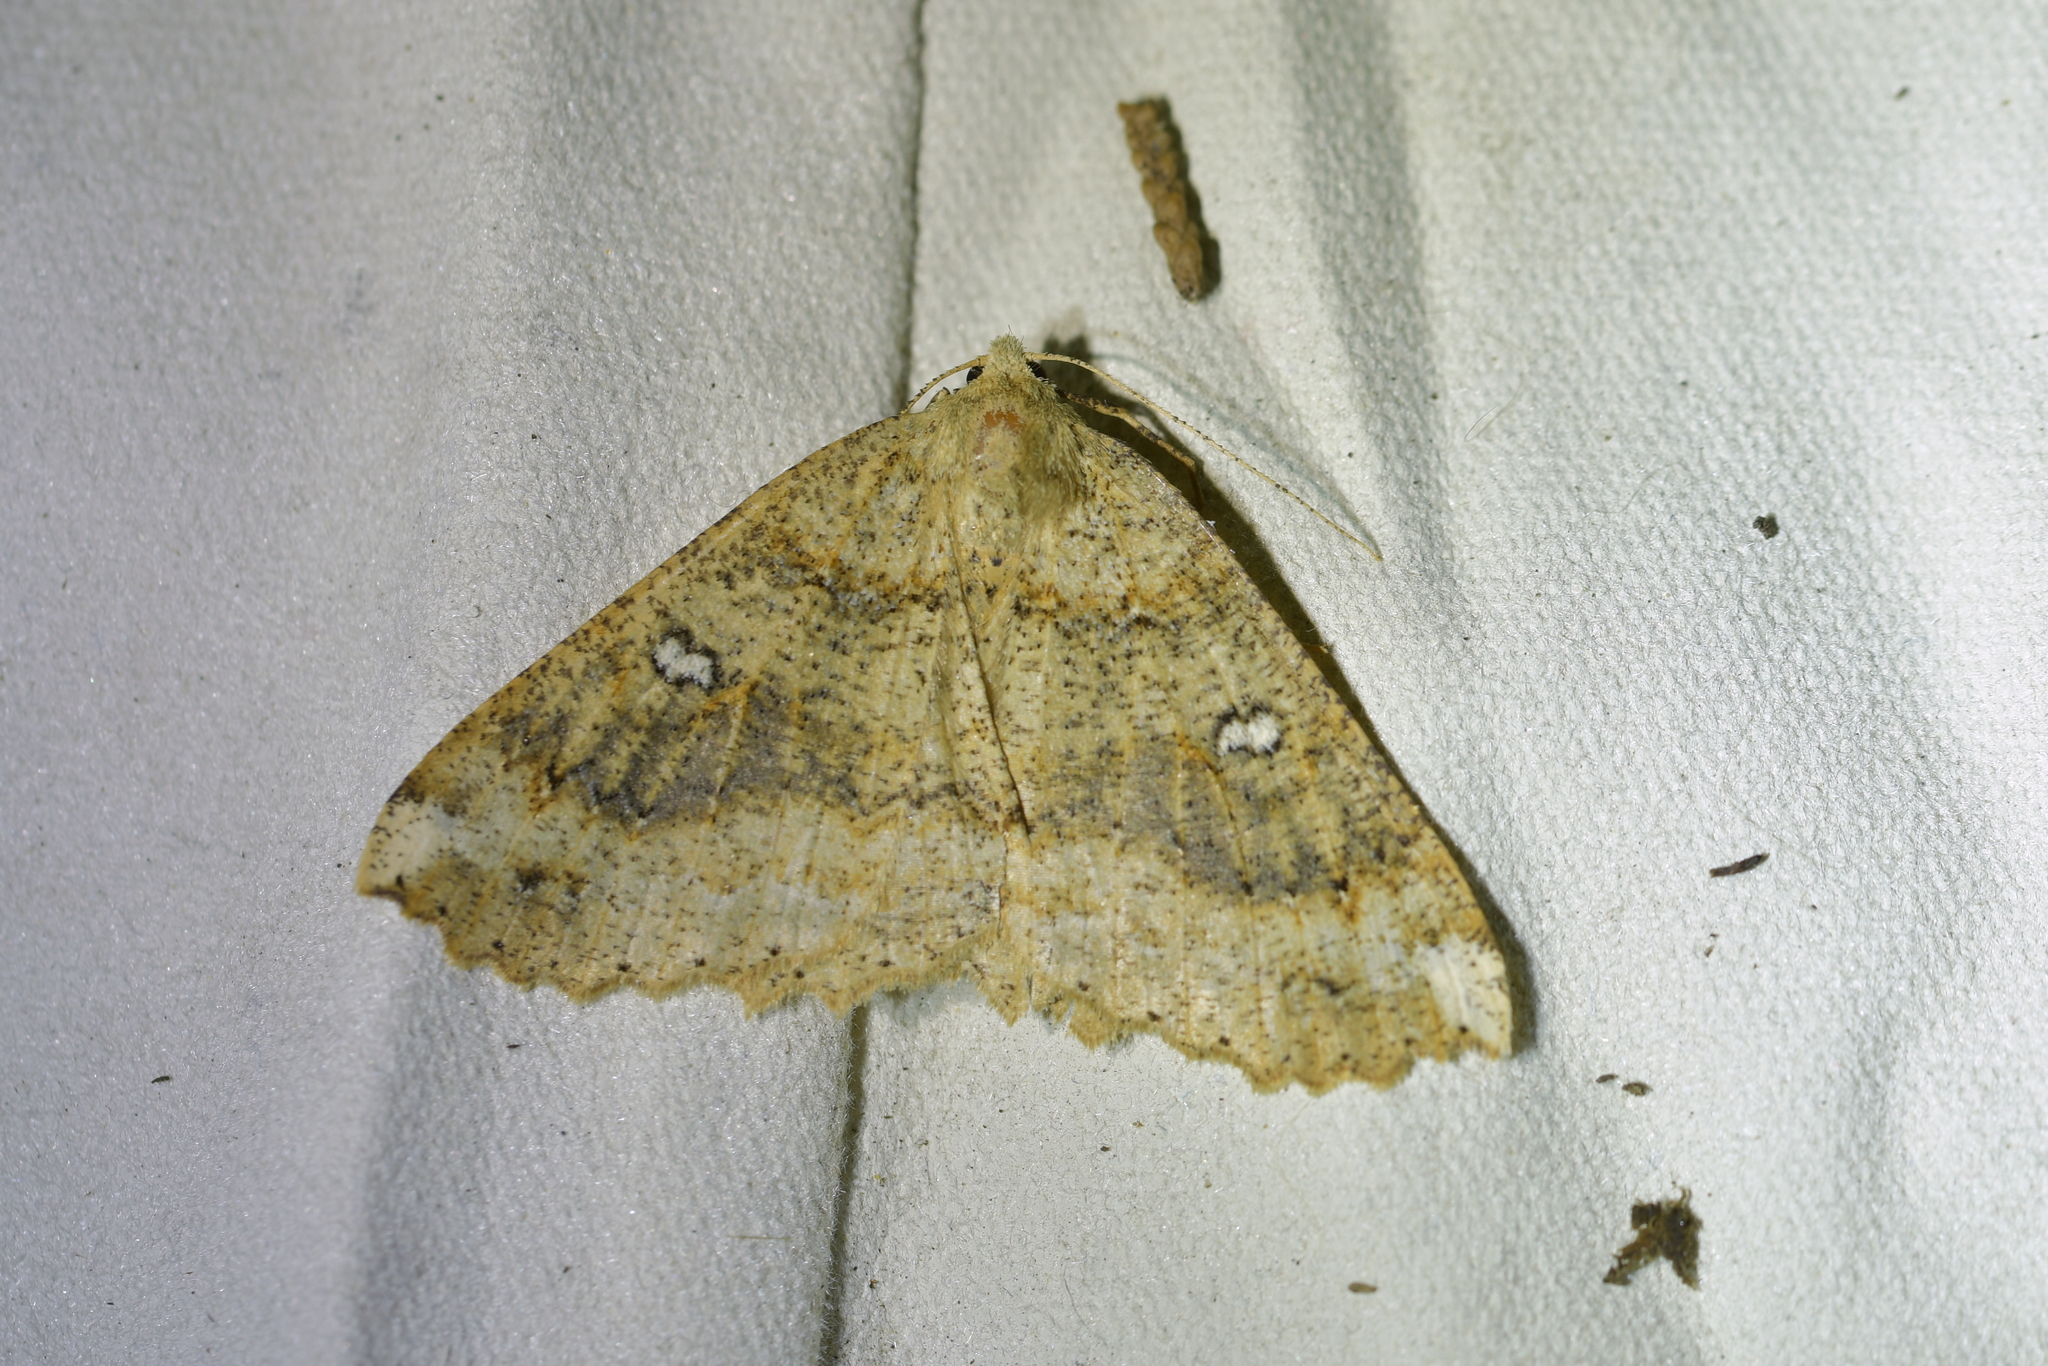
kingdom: Animalia
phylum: Arthropoda
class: Insecta
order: Lepidoptera
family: Geometridae
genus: Cleora
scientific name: Cleora scriptaria
